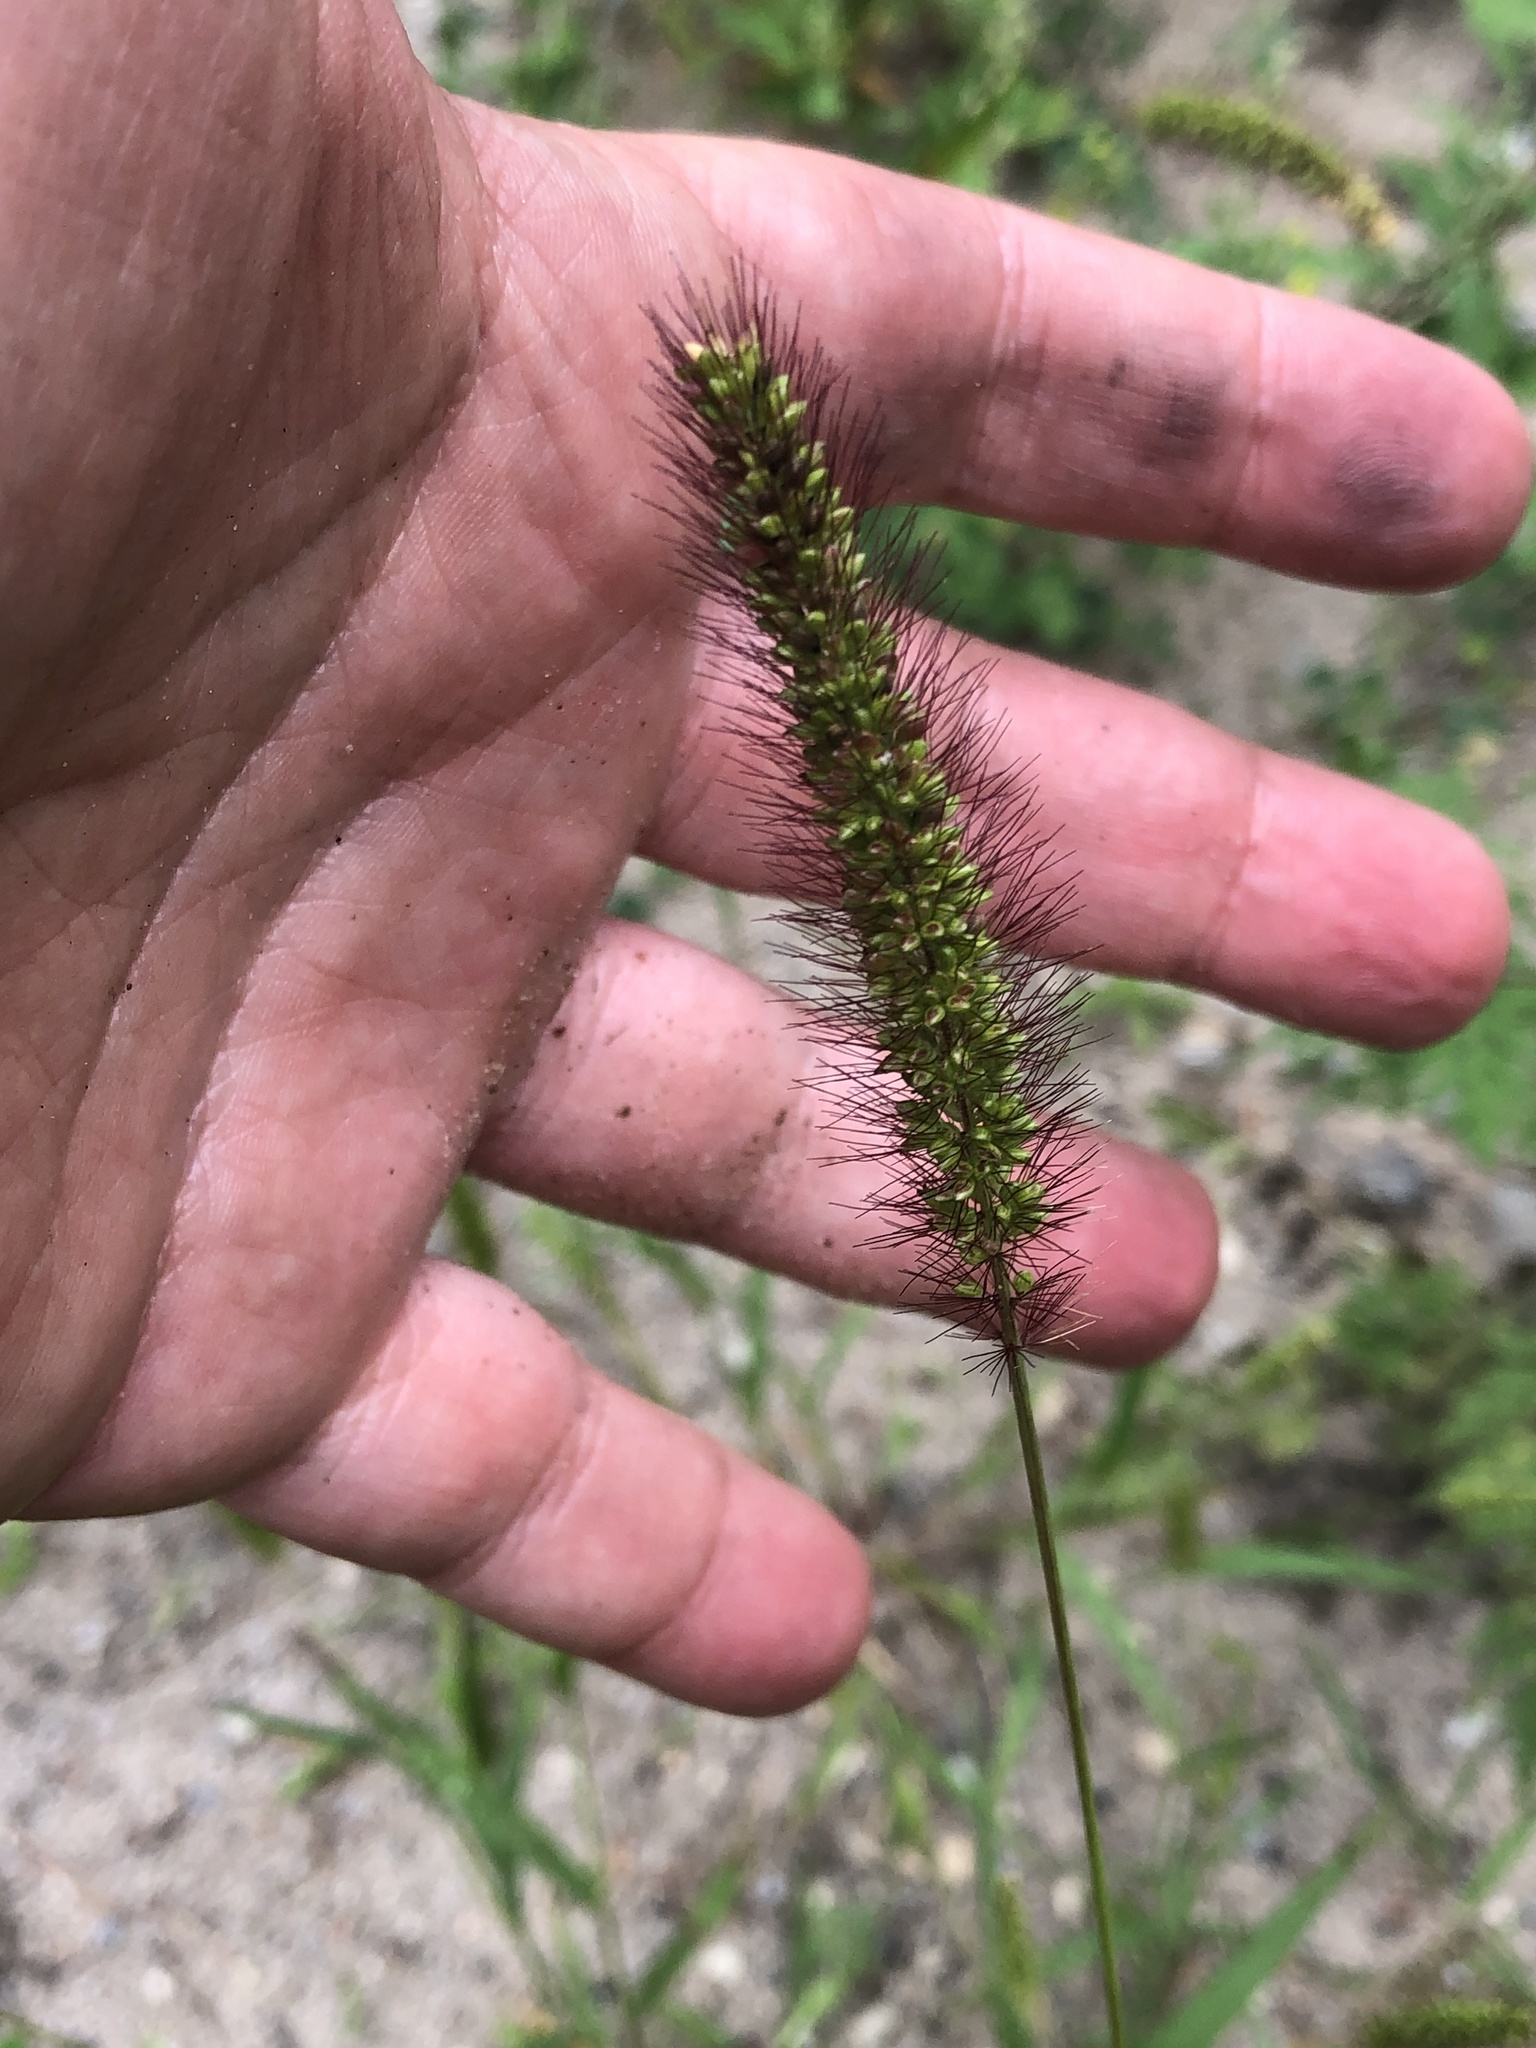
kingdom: Plantae
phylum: Tracheophyta
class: Liliopsida
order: Poales
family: Poaceae
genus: Setaria
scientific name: Setaria viridis
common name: Green bristlegrass
